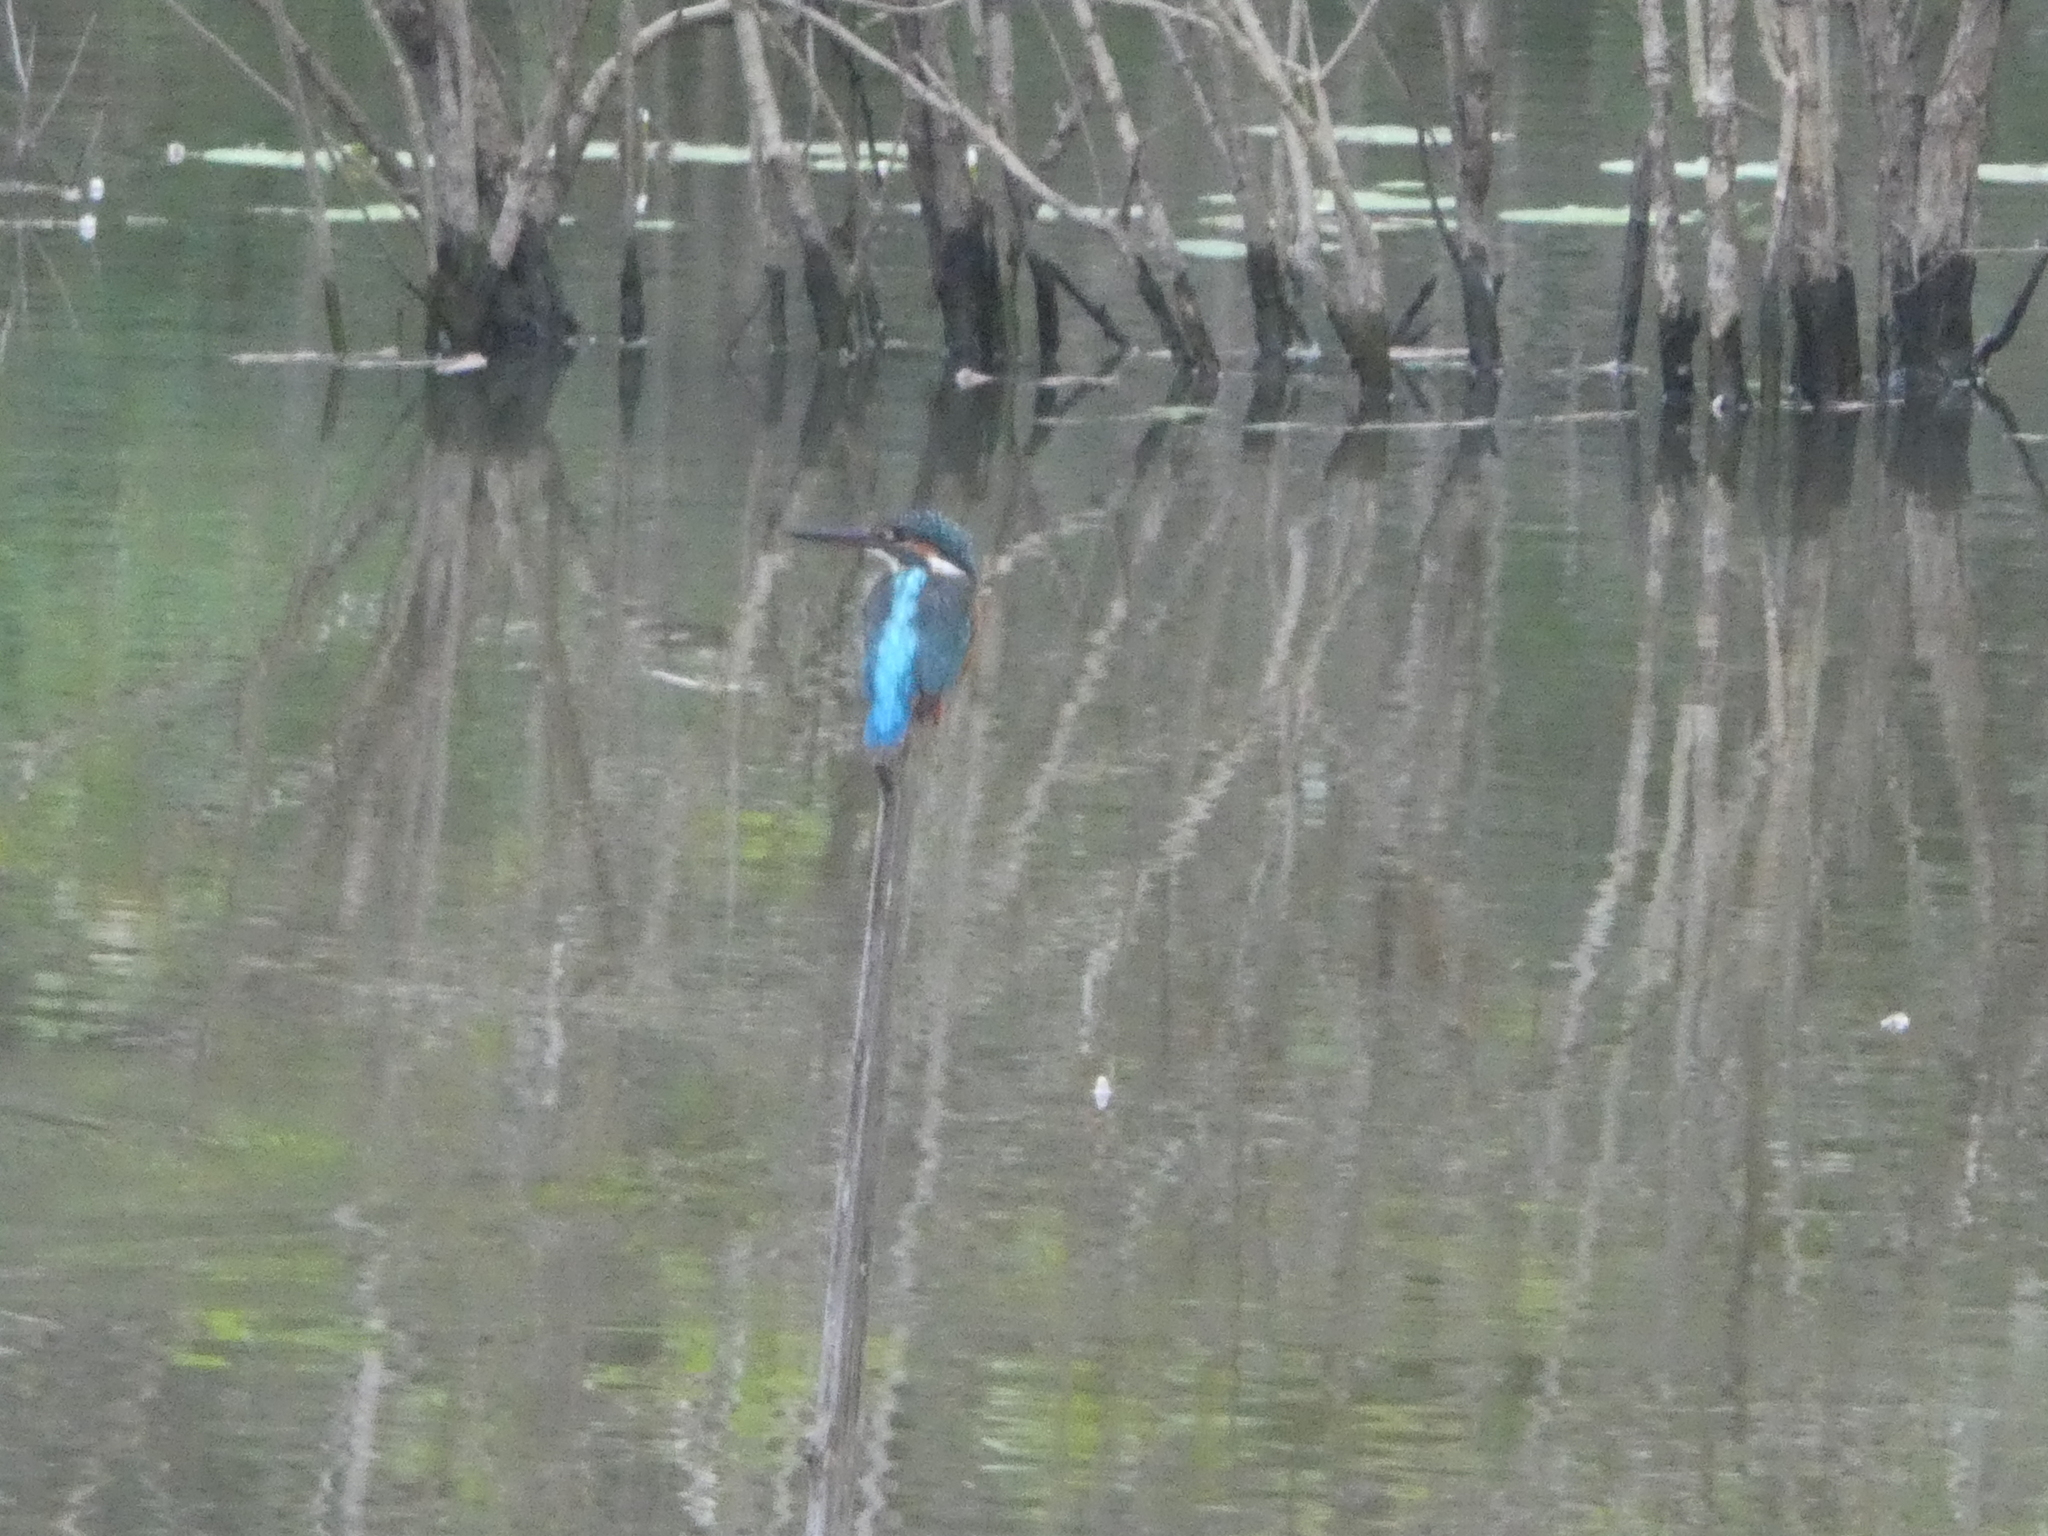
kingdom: Animalia
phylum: Chordata
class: Aves
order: Coraciiformes
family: Alcedinidae
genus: Alcedo
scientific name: Alcedo atthis
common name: Common kingfisher
